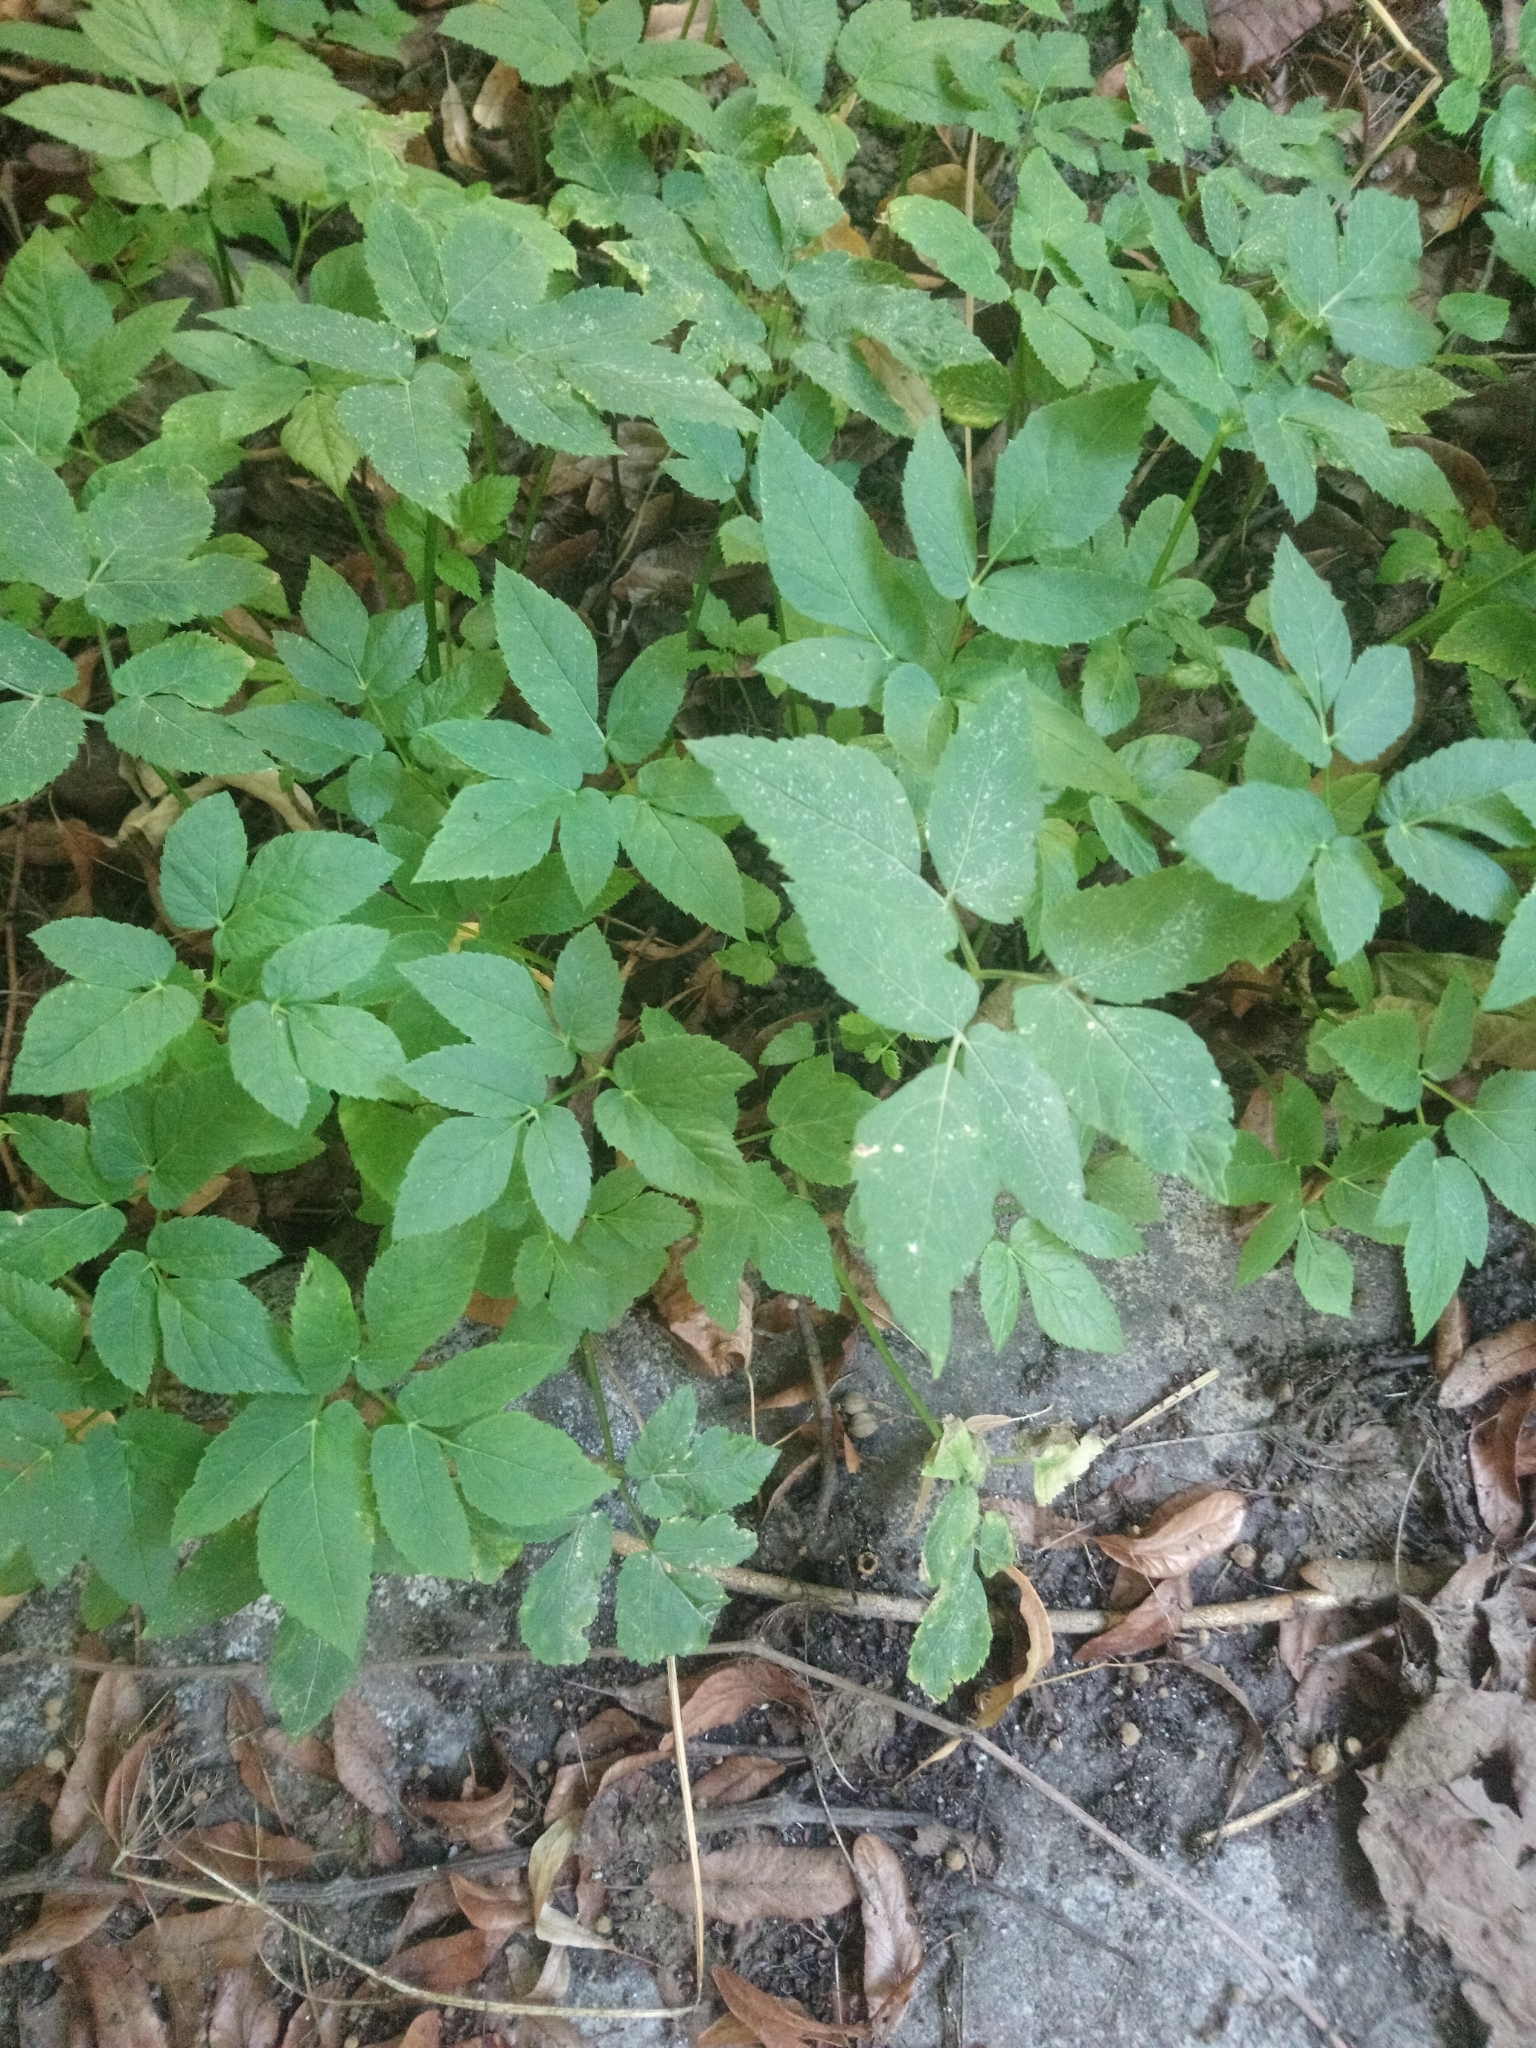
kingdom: Plantae
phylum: Tracheophyta
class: Magnoliopsida
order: Apiales
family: Apiaceae
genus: Aegopodium
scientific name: Aegopodium podagraria
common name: Ground-elder
